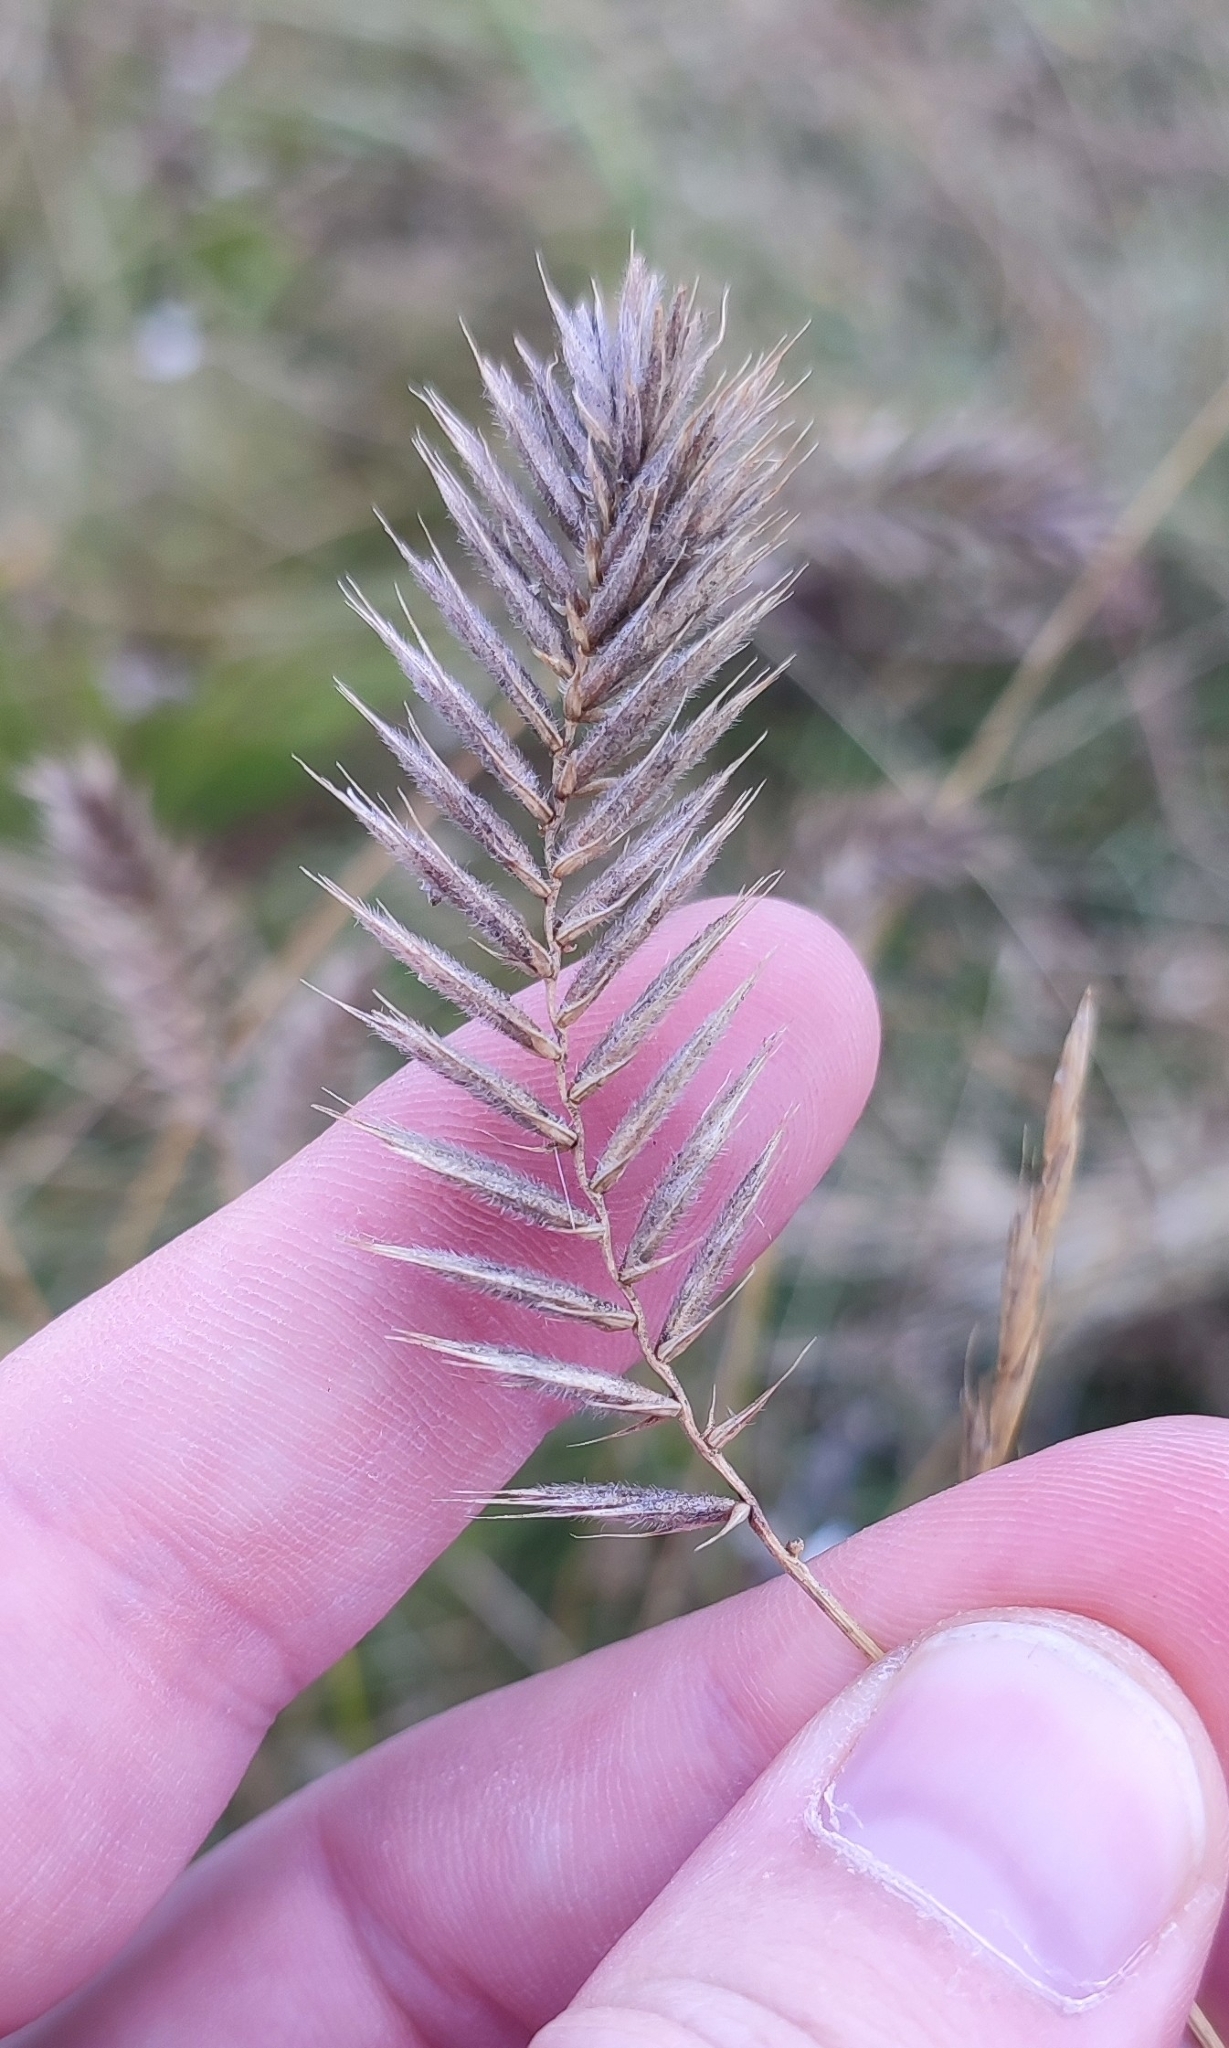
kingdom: Plantae
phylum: Tracheophyta
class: Liliopsida
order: Poales
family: Poaceae
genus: Agropyron
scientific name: Agropyron cristatum
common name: Crested wheatgrass
